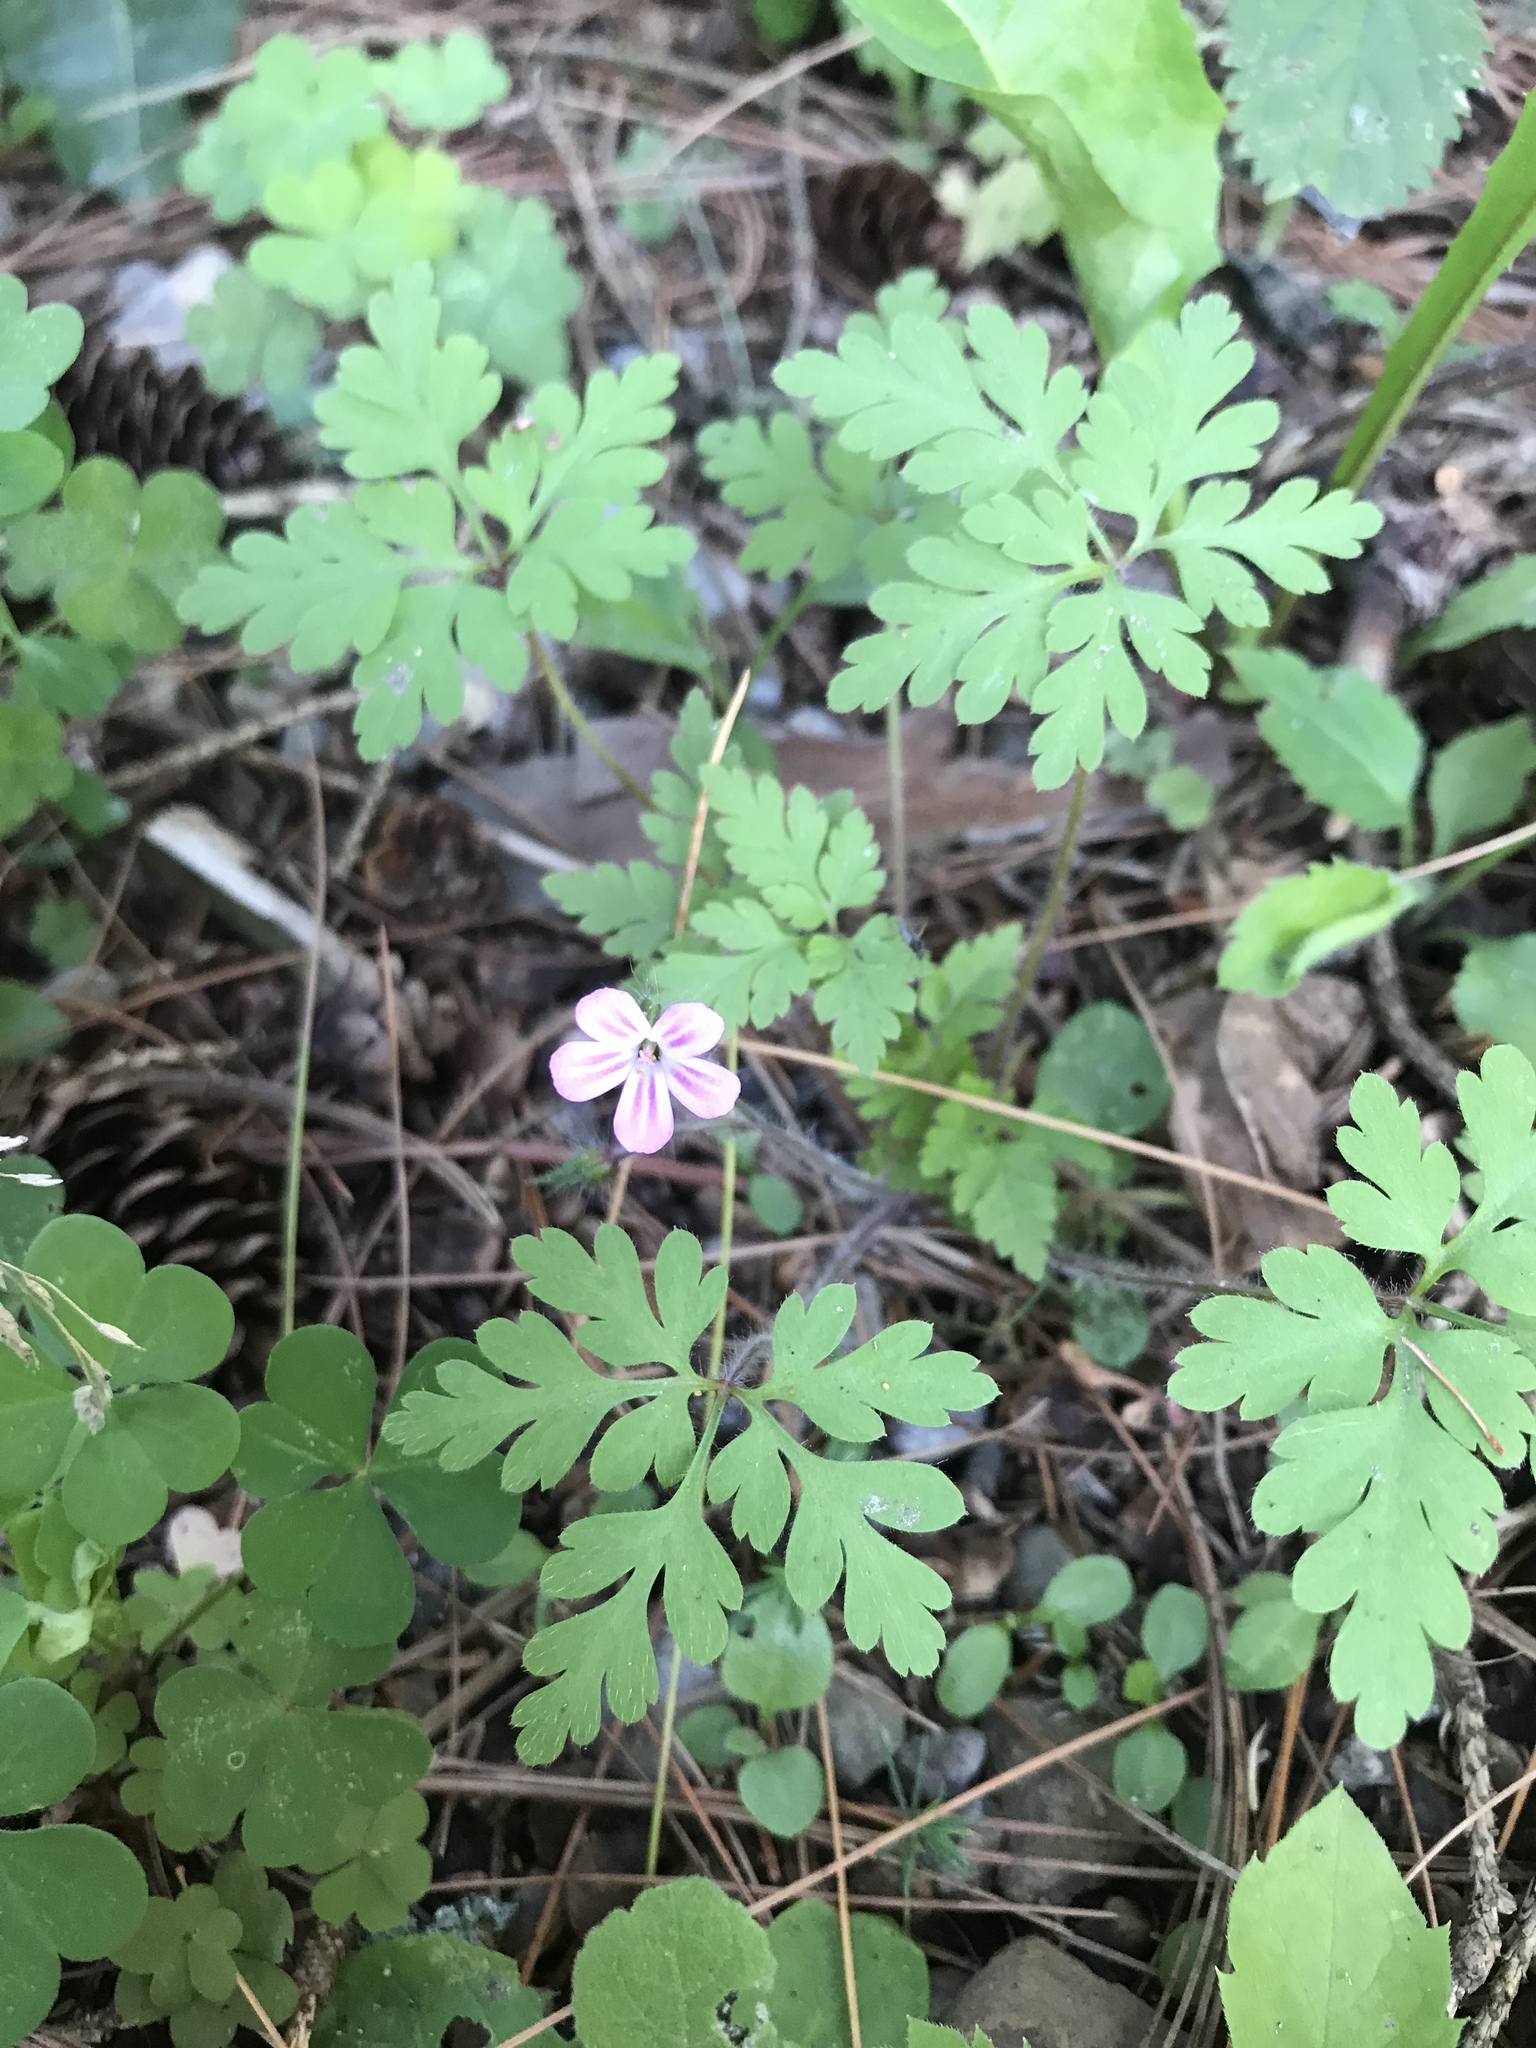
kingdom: Plantae
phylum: Tracheophyta
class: Magnoliopsida
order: Geraniales
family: Geraniaceae
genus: Geranium
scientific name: Geranium robertianum
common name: Herb-robert
